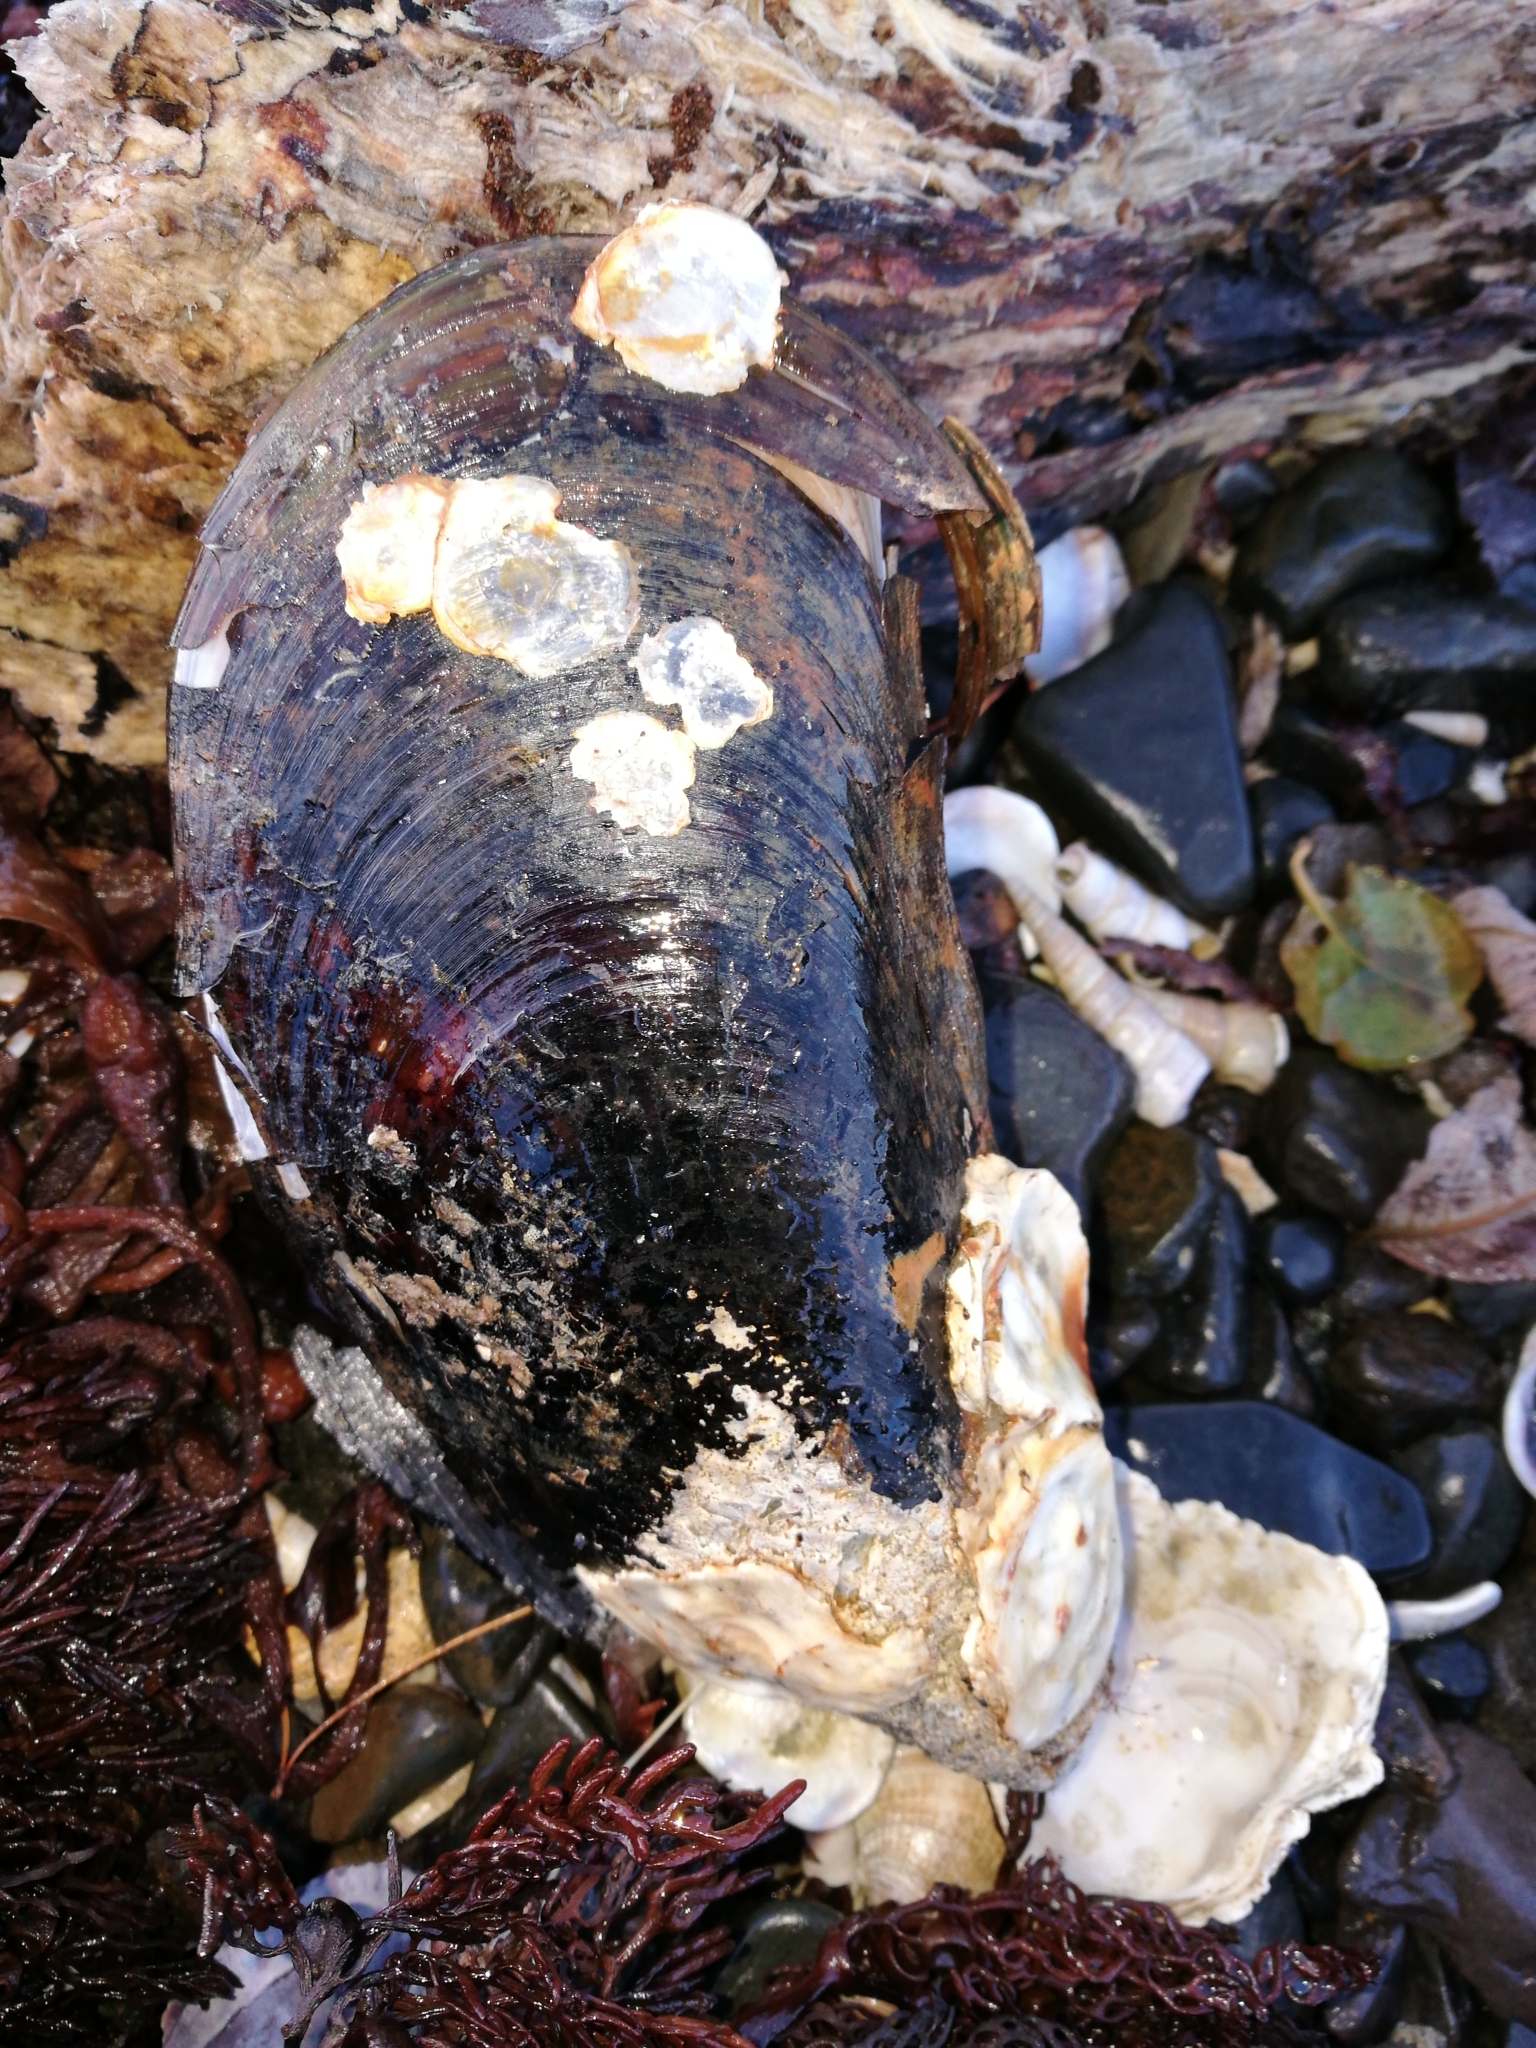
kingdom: Animalia
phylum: Mollusca
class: Bivalvia
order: Mytilida
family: Mytilidae
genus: Perna
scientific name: Perna canaliculus
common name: New zealand greenshelltm
